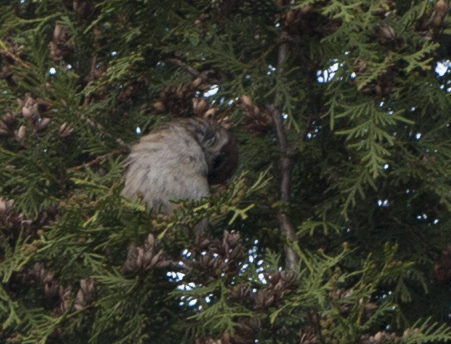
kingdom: Animalia
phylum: Chordata
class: Aves
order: Passeriformes
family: Passeridae
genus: Passer
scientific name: Passer montanus
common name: Eurasian tree sparrow
